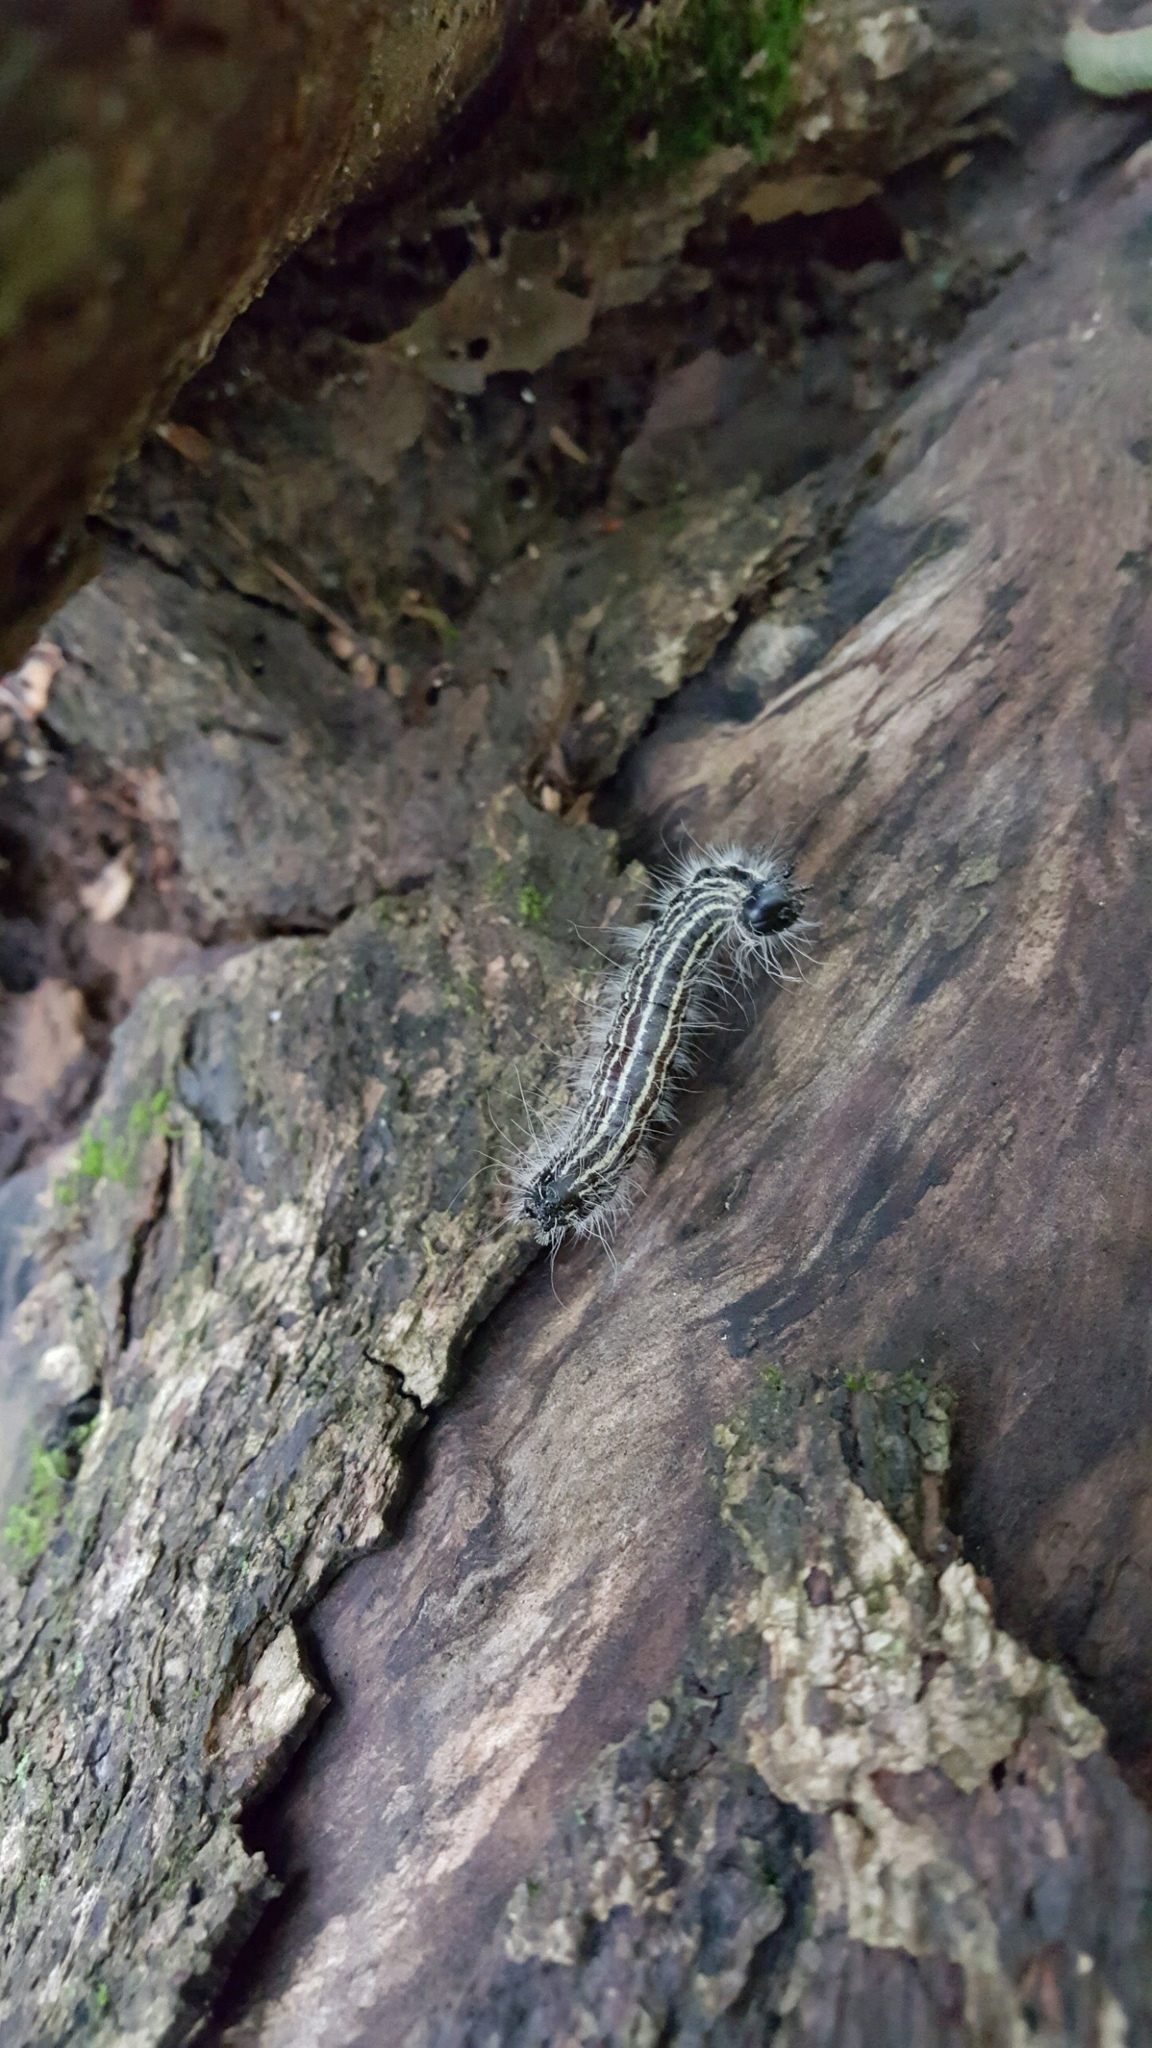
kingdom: Animalia
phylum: Arthropoda
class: Insecta
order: Lepidoptera
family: Notodontidae
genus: Datana
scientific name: Datana integerrima
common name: Walnut caterpillar
